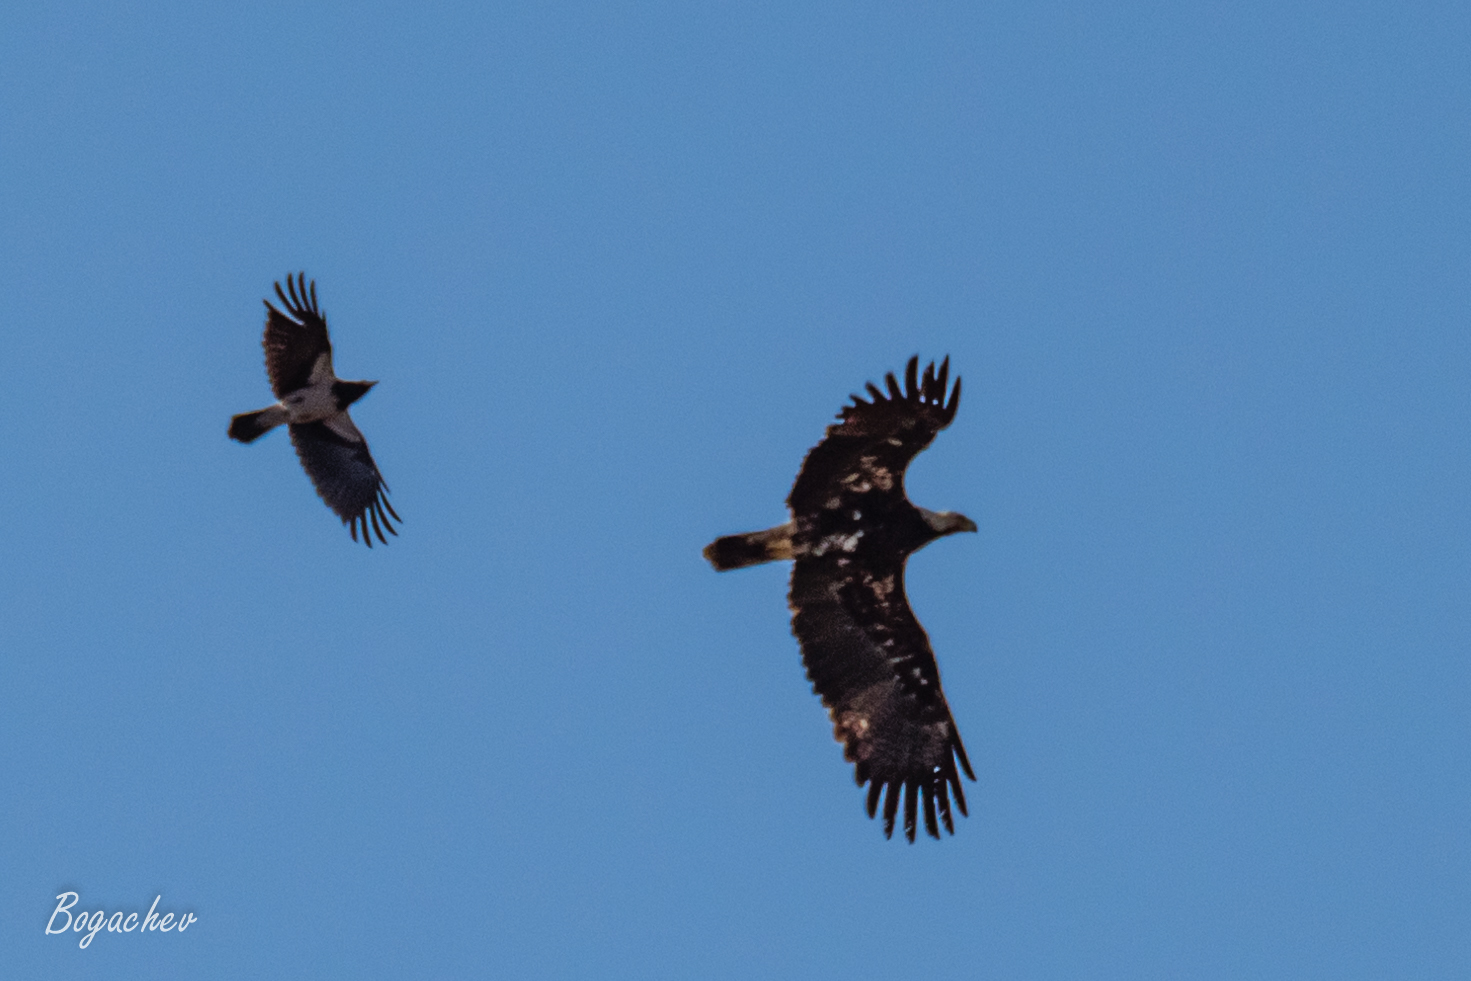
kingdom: Animalia
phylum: Chordata
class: Aves
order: Accipitriformes
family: Accipitridae
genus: Aquila
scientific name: Aquila heliaca
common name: Eastern imperial eagle
